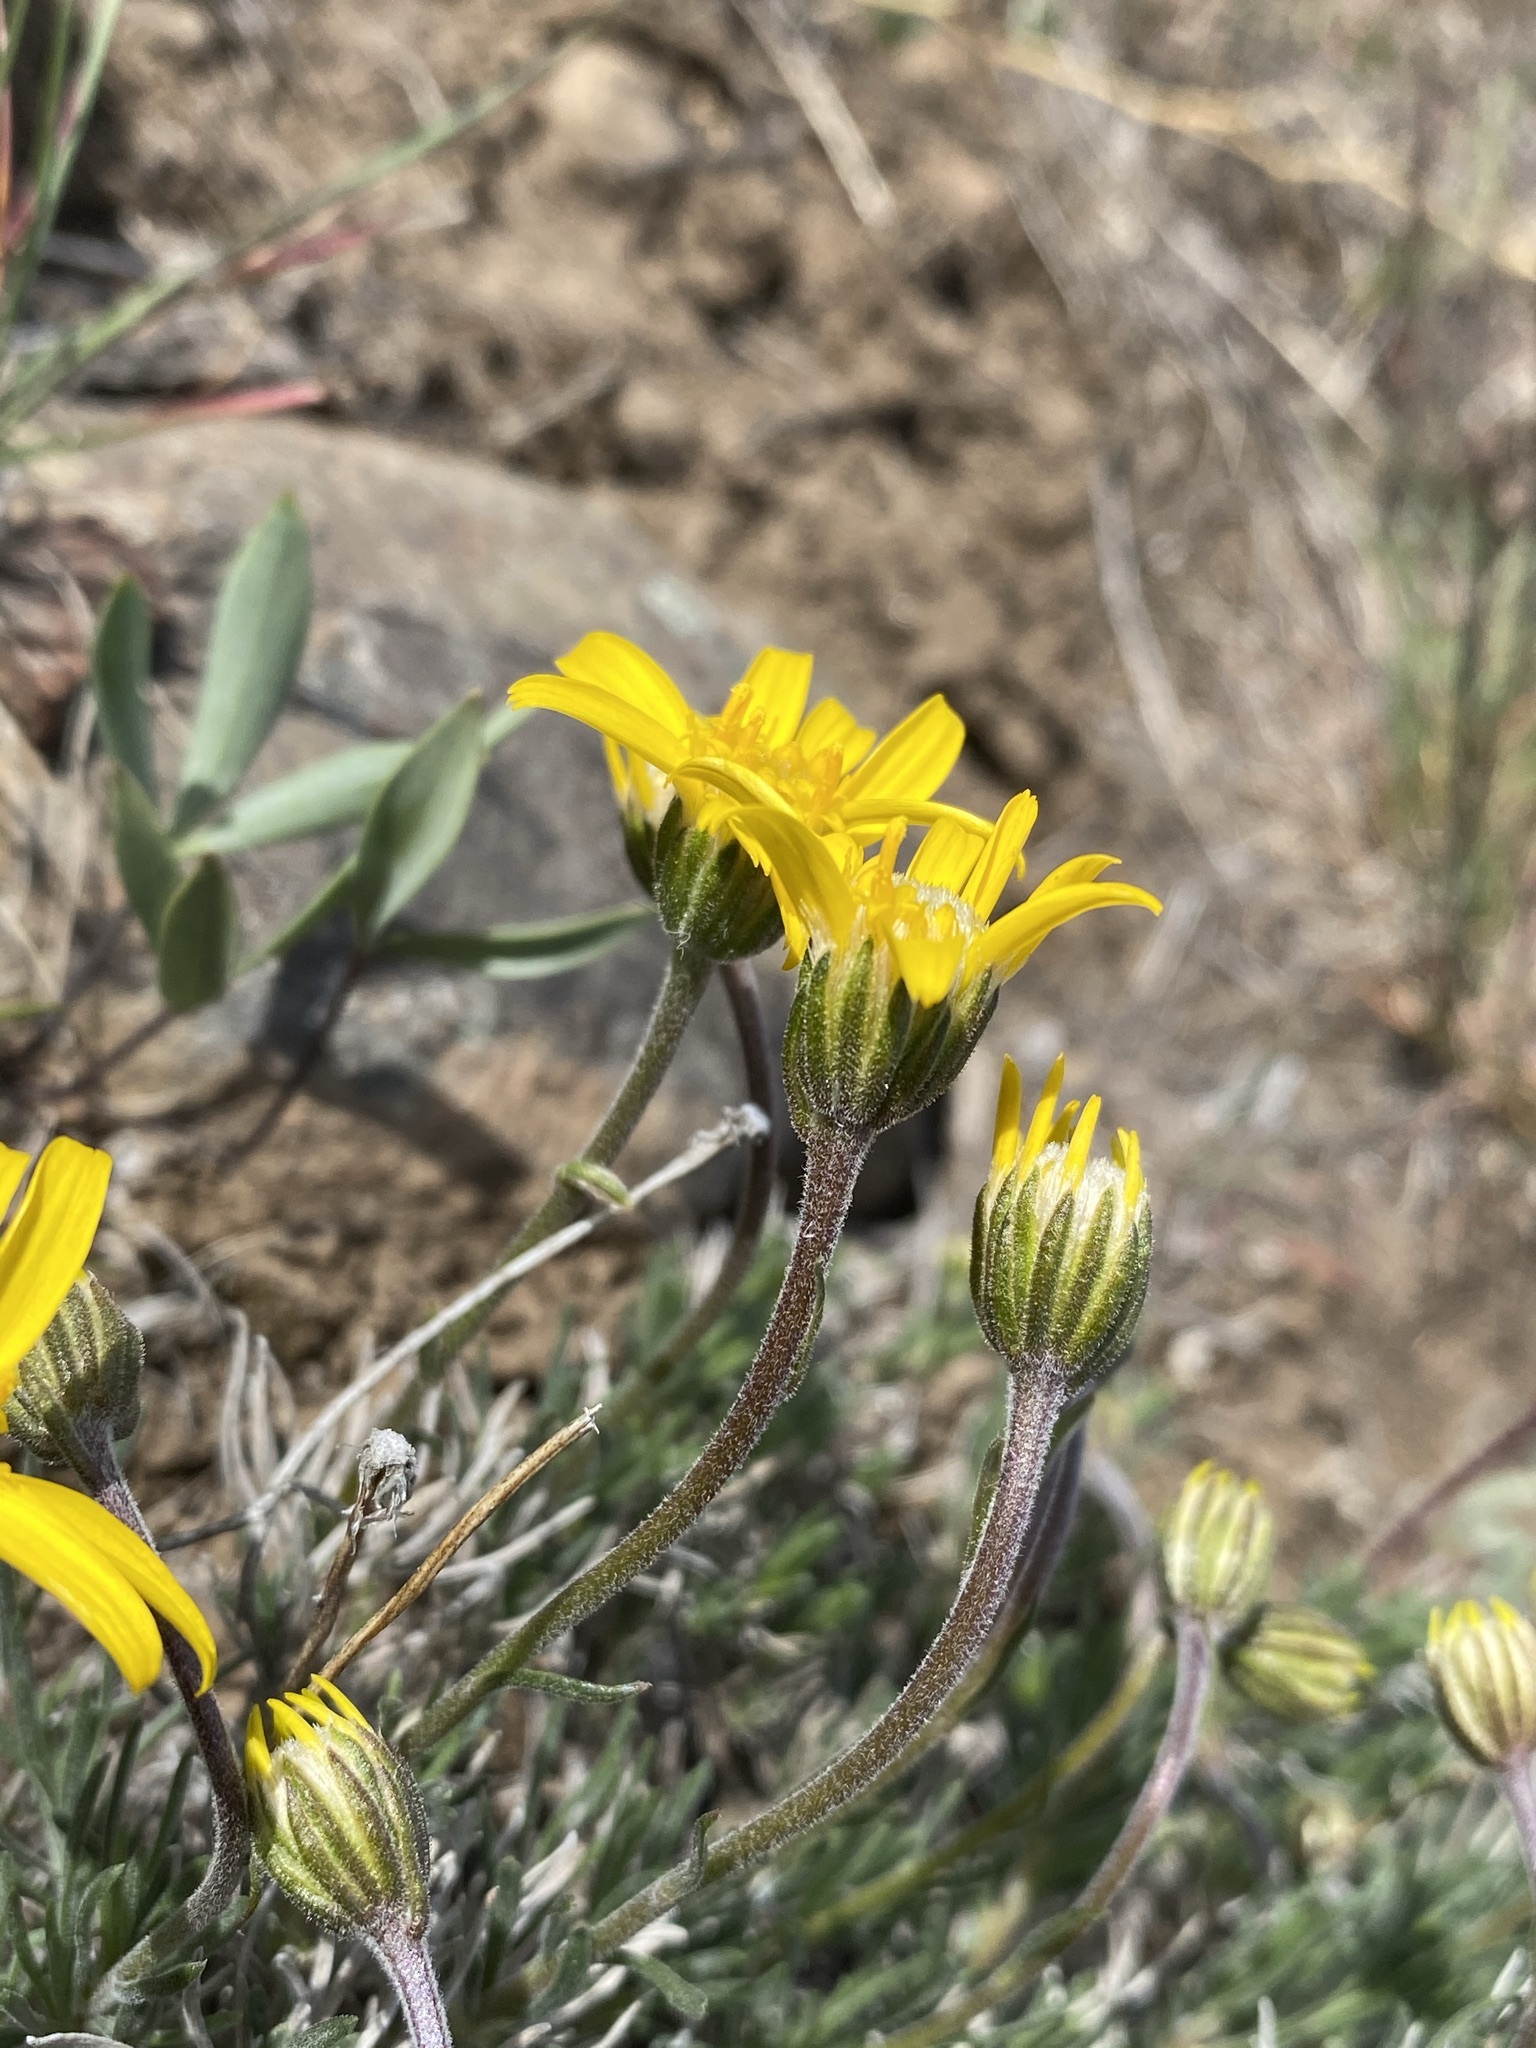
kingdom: Plantae
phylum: Tracheophyta
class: Magnoliopsida
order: Asterales
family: Asteraceae
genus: Nestotus
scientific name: Nestotus stenophyllus
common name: Narrow-leaf mock goldenweed
